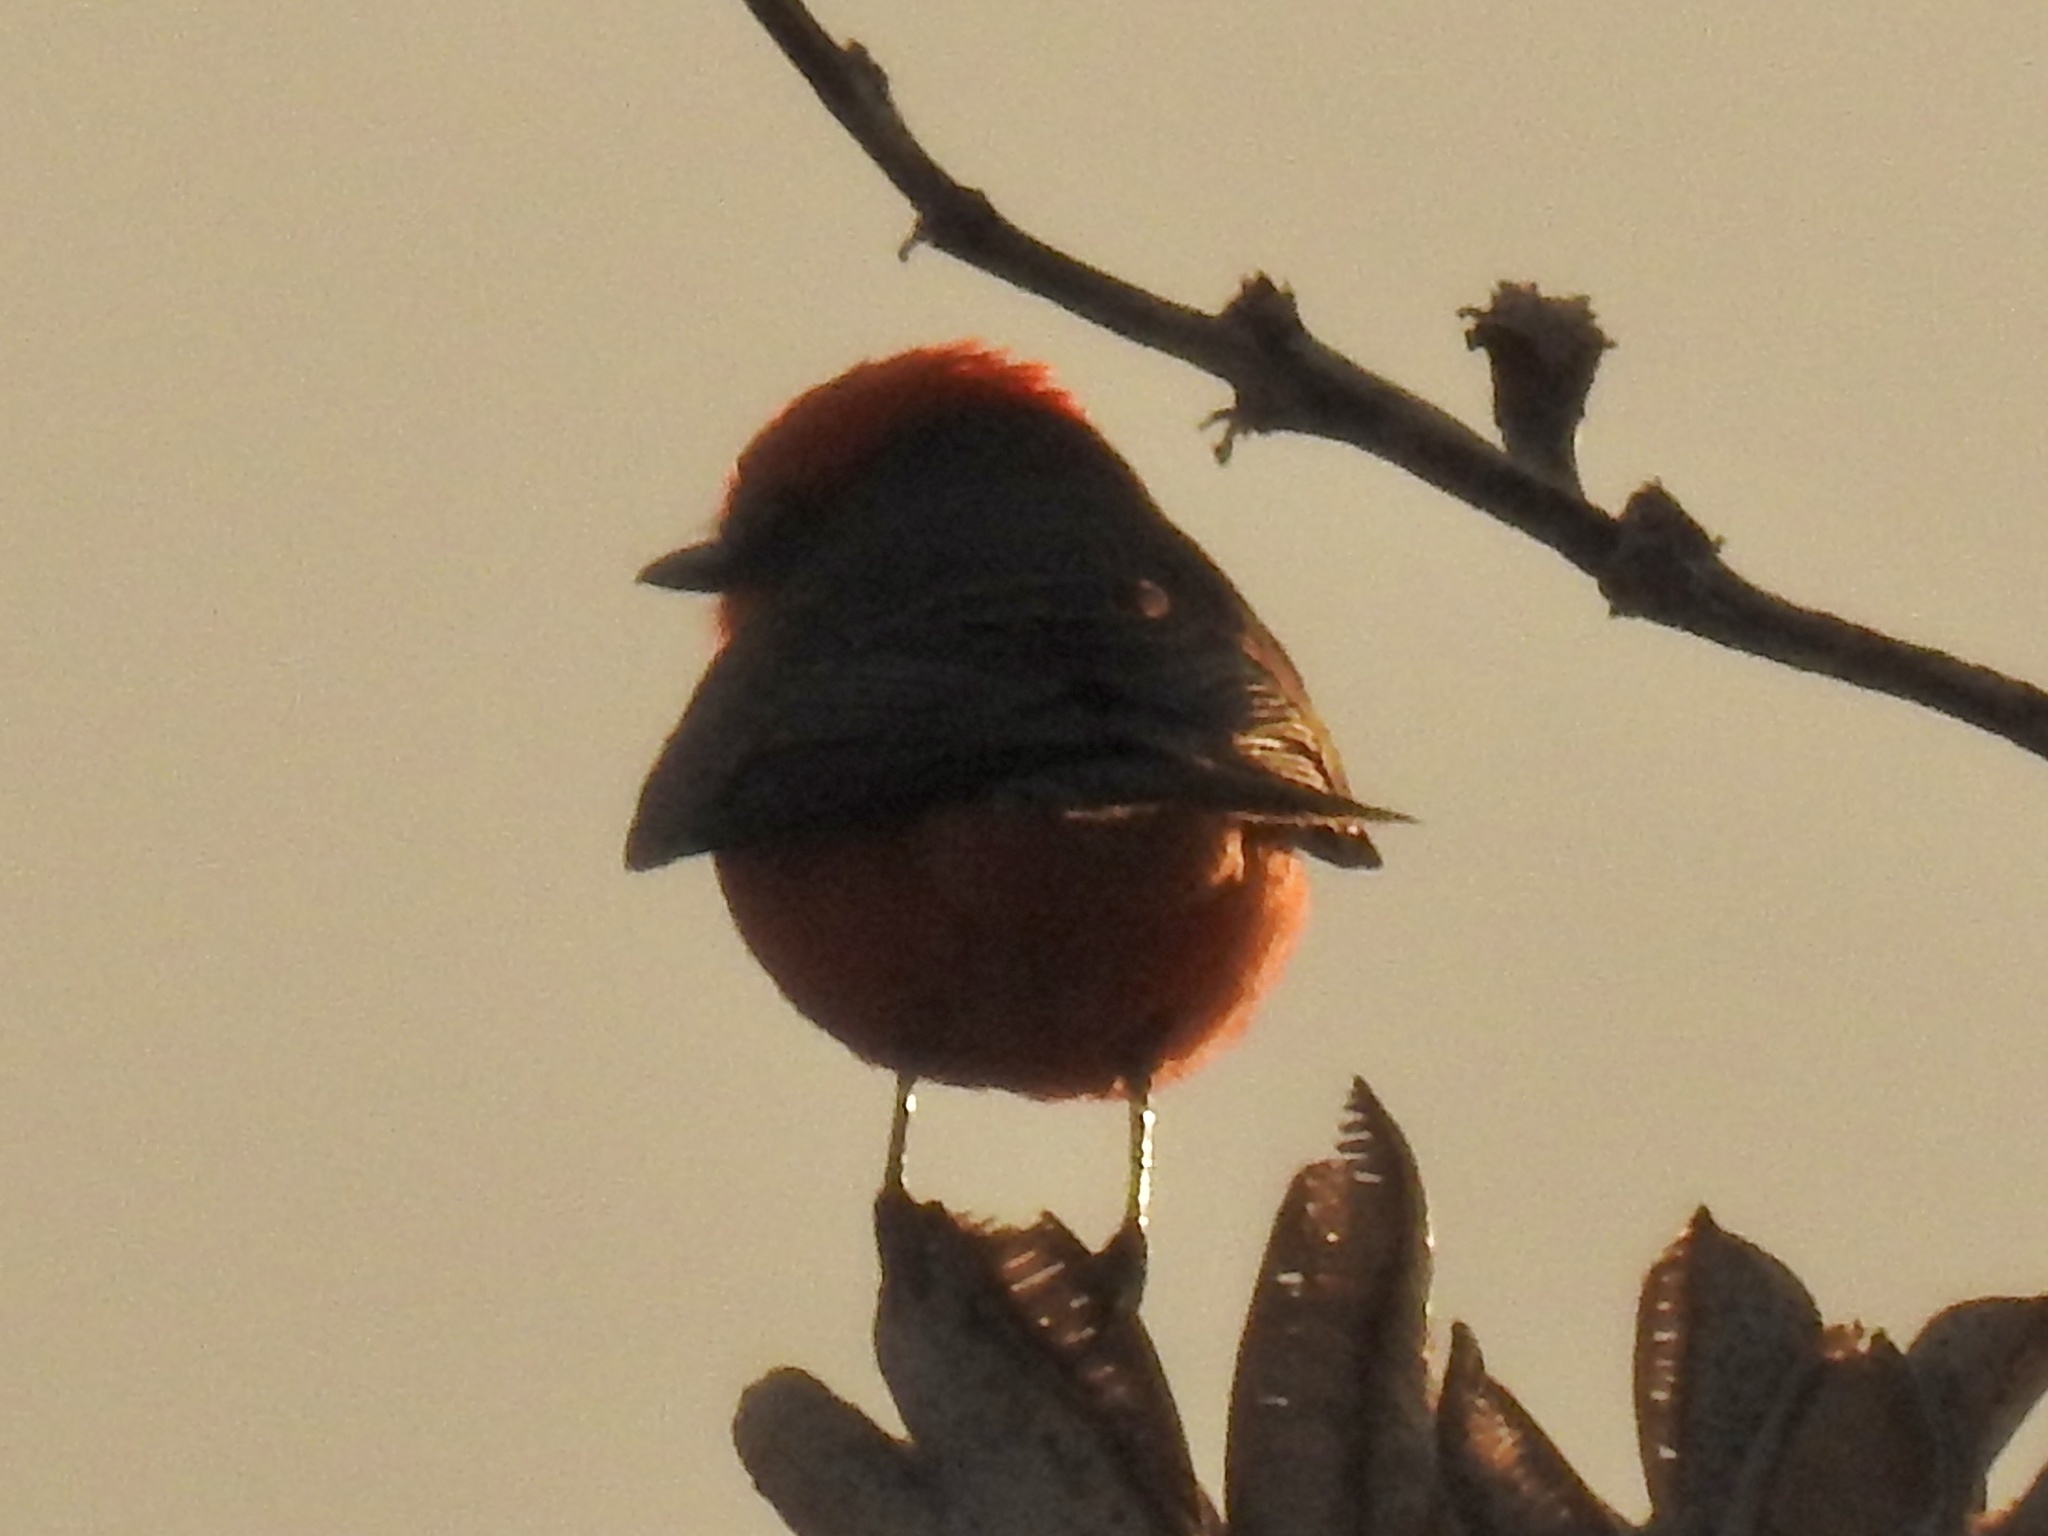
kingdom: Animalia
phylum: Chordata
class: Aves
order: Passeriformes
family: Tyrannidae
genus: Pyrocephalus
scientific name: Pyrocephalus rubinus
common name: Vermilion flycatcher
